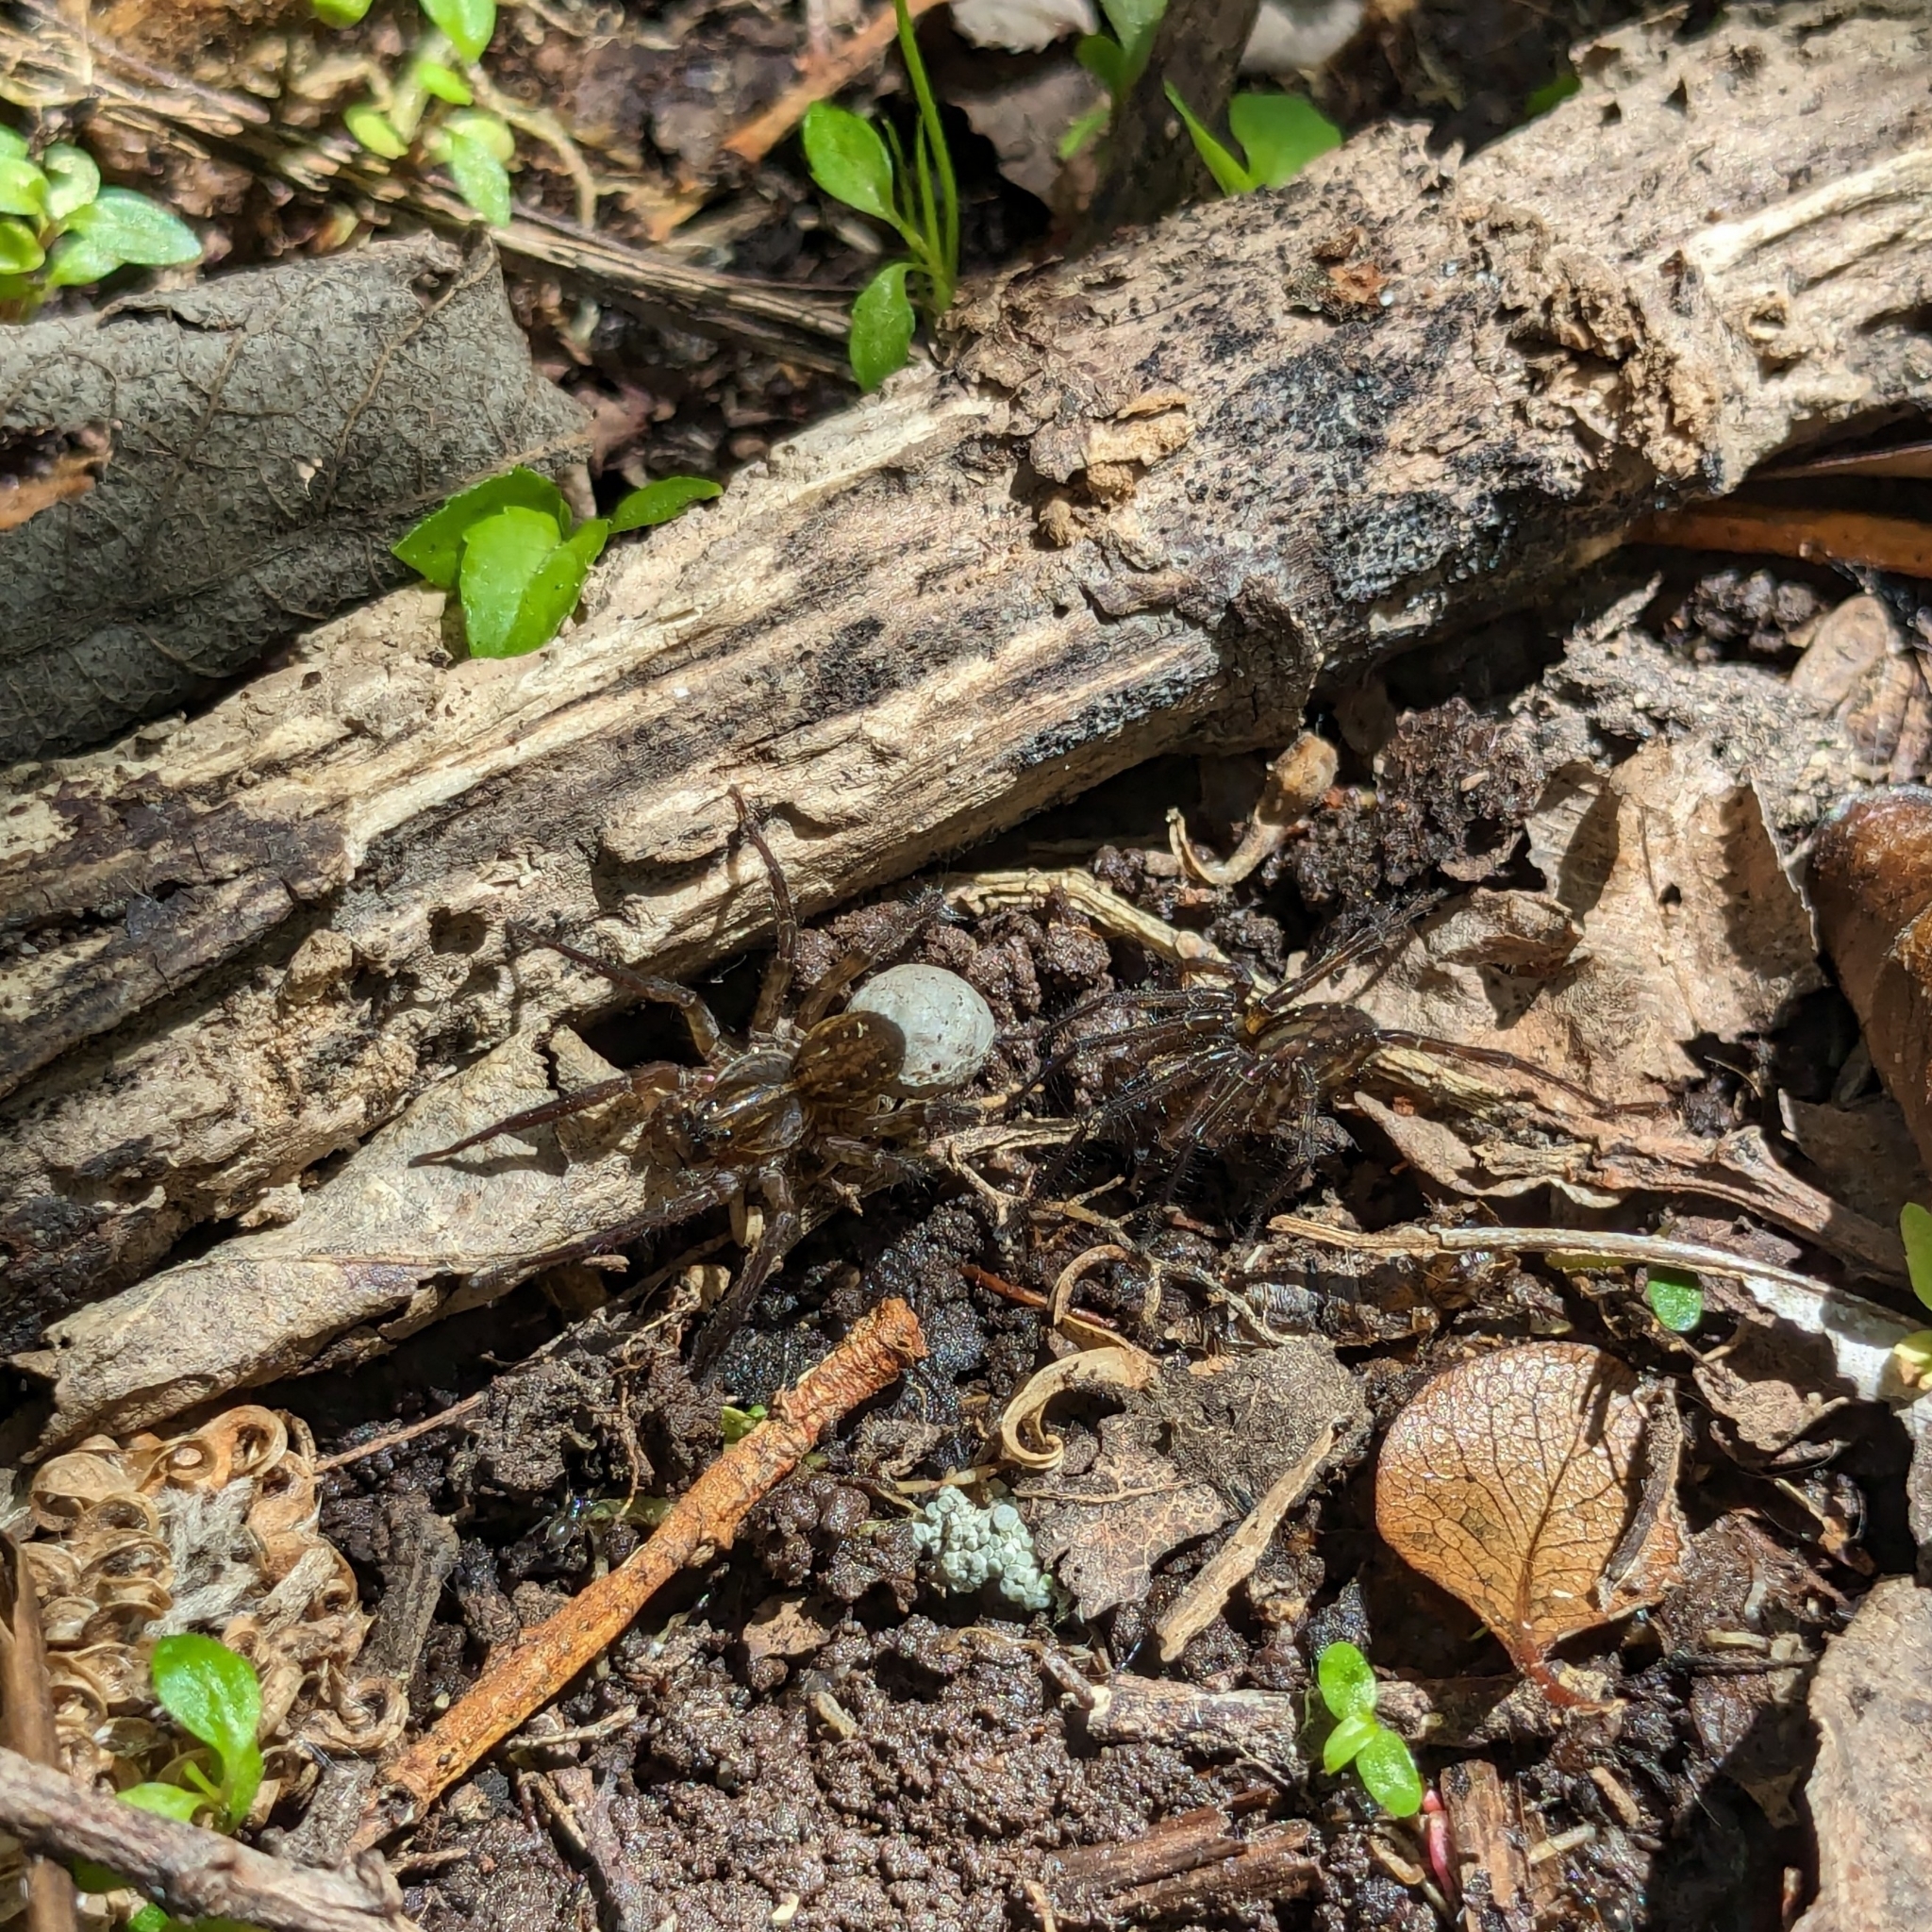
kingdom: Animalia
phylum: Arthropoda
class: Arachnida
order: Araneae
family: Lycosidae
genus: Allotrochosina
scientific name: Allotrochosina schauinslandi
